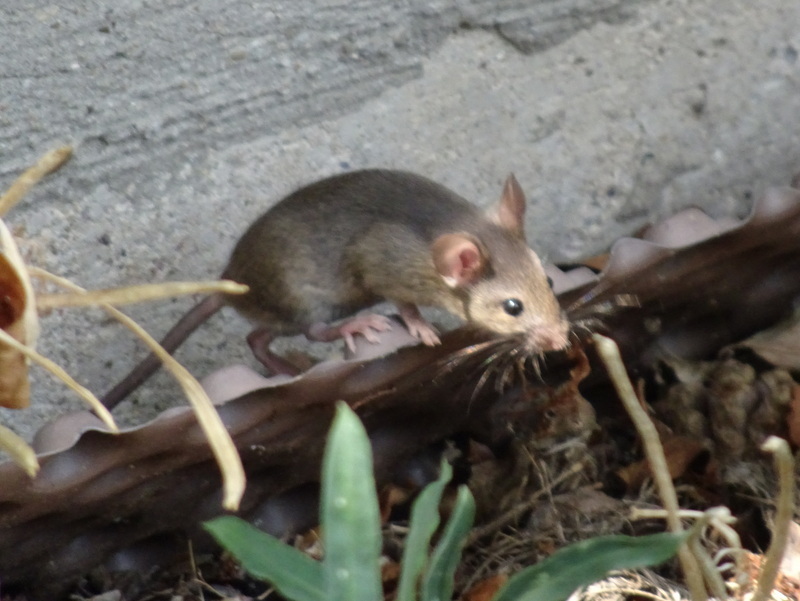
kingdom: Animalia
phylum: Chordata
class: Mammalia
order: Rodentia
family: Muridae
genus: Mus
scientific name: Mus musculus
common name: House mouse
